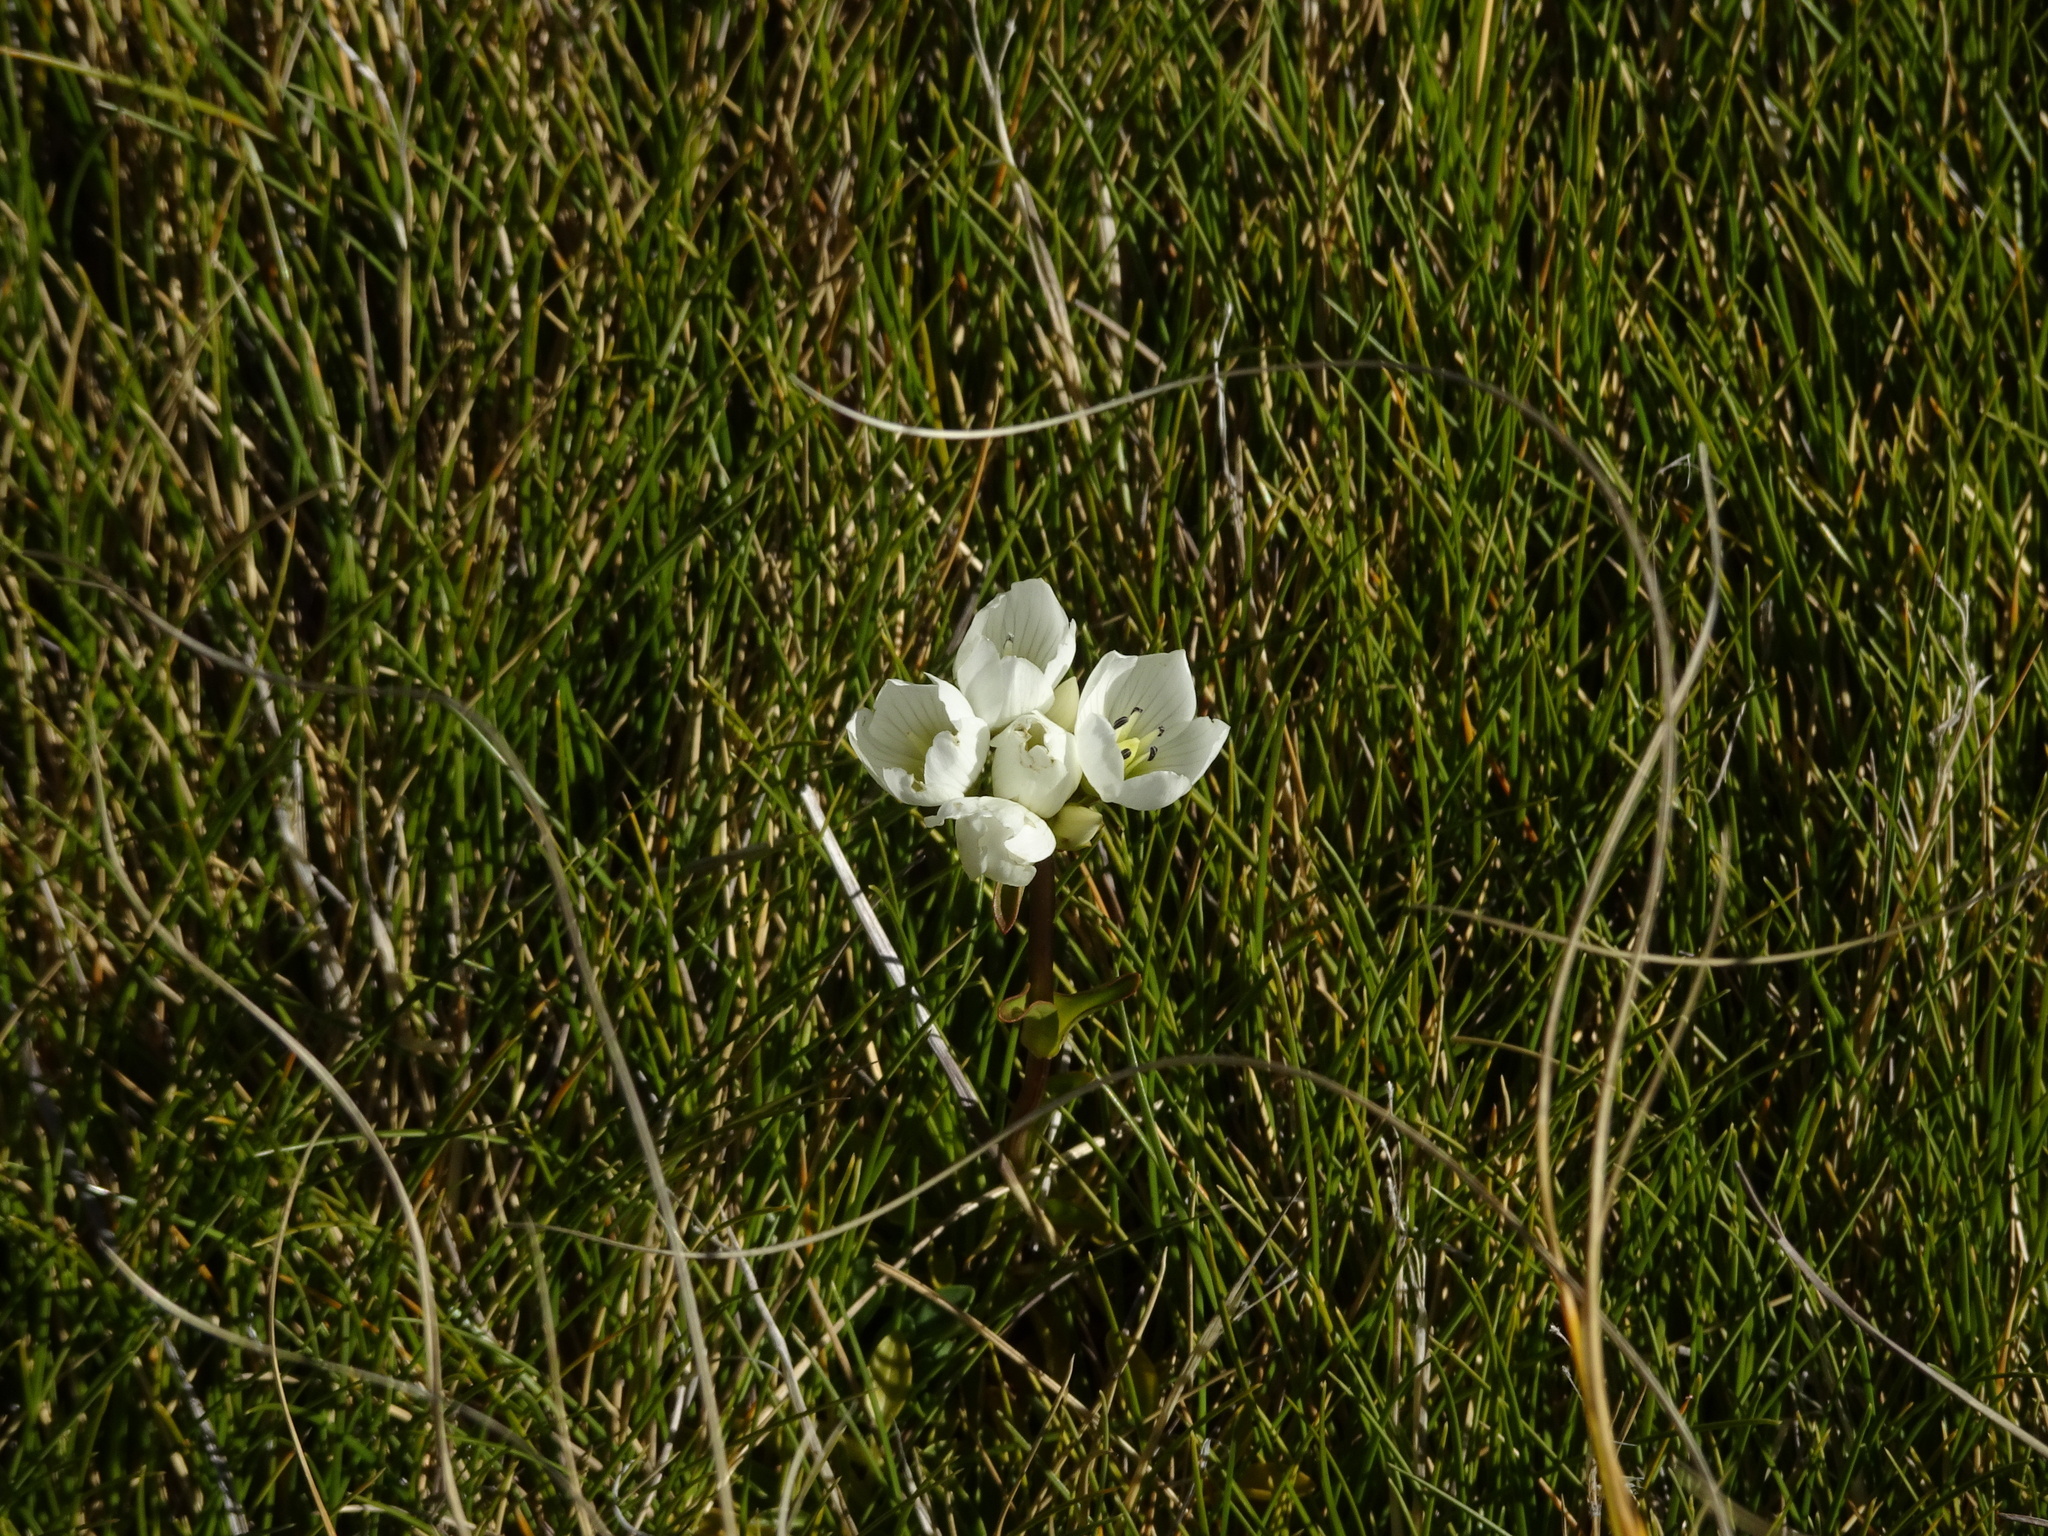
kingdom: Plantae
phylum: Tracheophyta
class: Magnoliopsida
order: Gentianales
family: Gentianaceae
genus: Gentianella
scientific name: Gentianella bellidifolia
